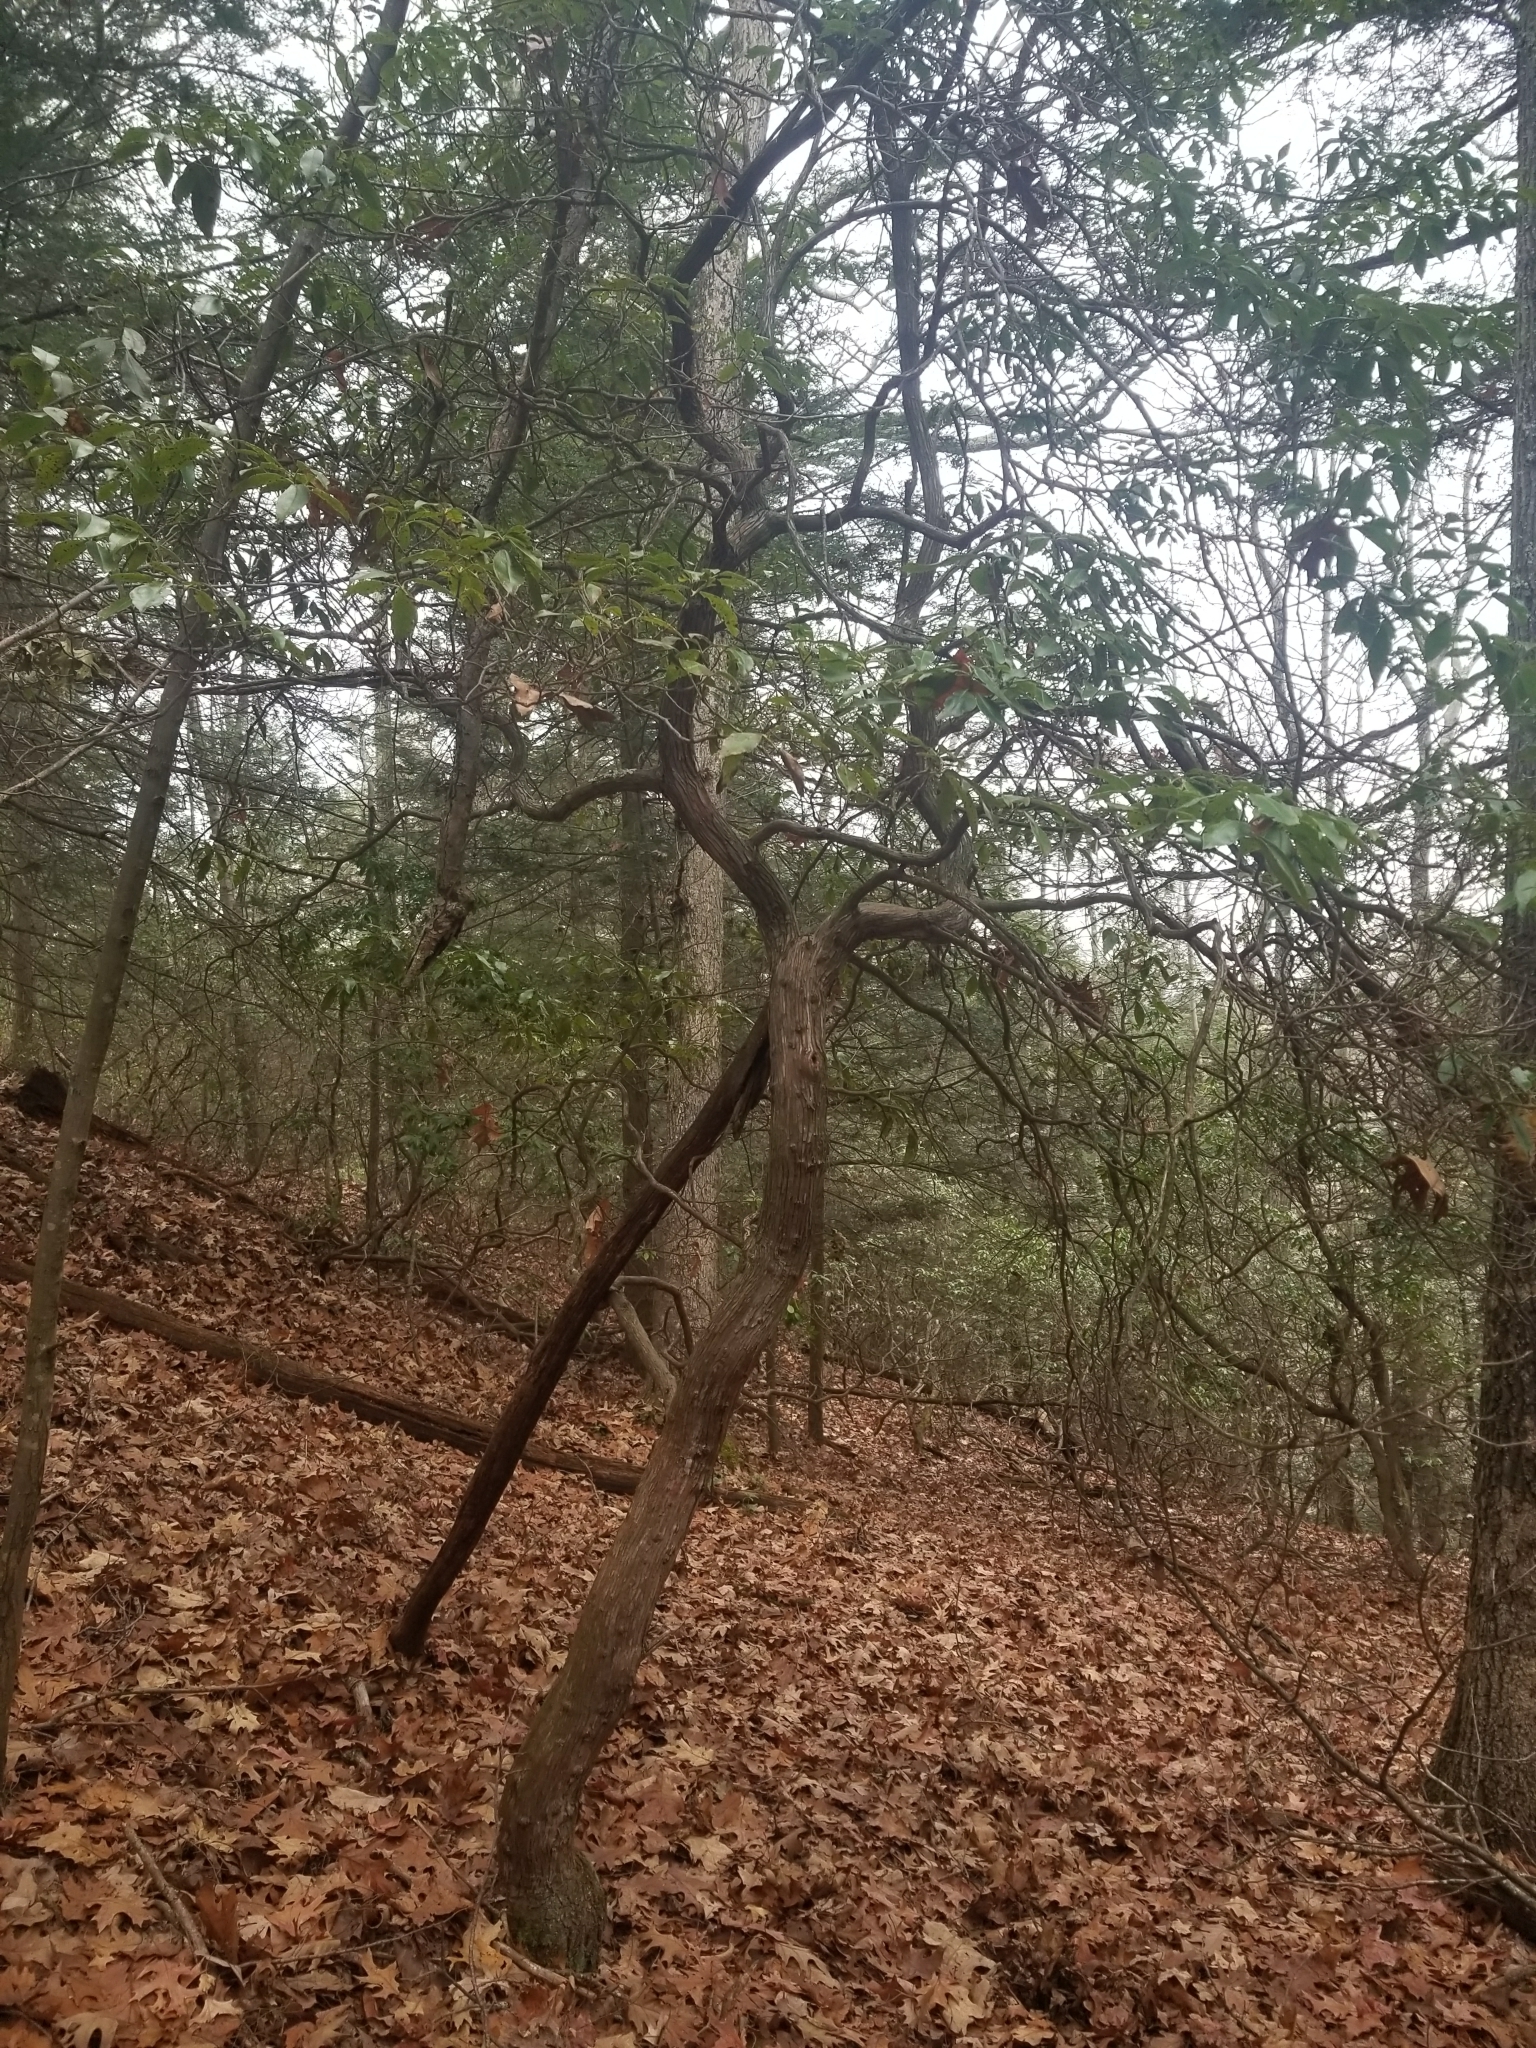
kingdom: Plantae
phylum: Tracheophyta
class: Magnoliopsida
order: Ericales
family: Ericaceae
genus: Kalmia
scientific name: Kalmia latifolia
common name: Mountain-laurel
